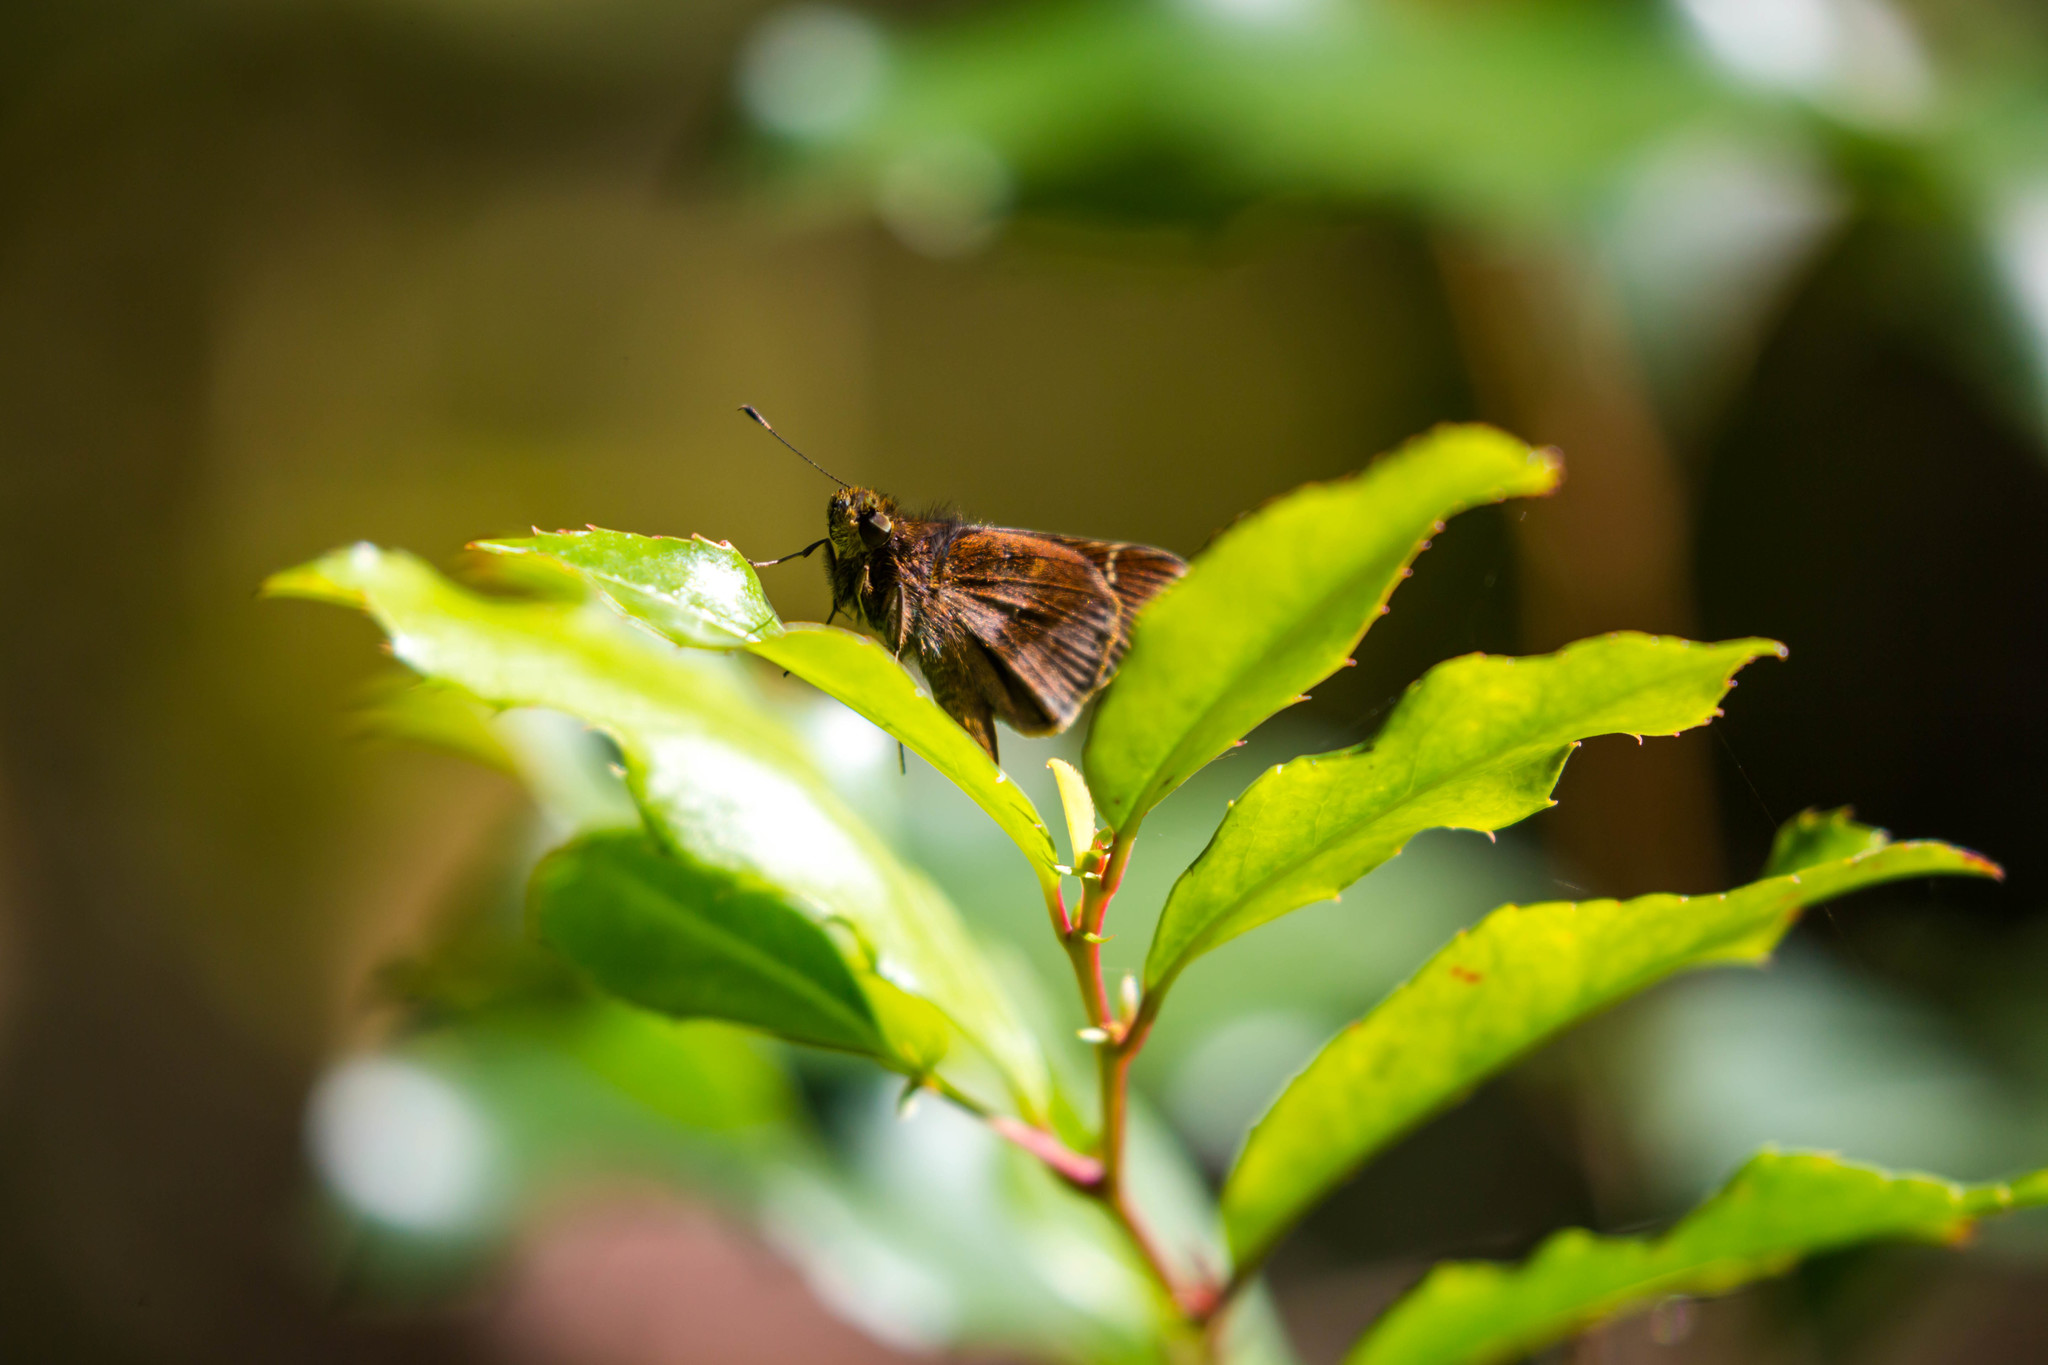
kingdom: Animalia
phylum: Arthropoda
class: Insecta
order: Lepidoptera
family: Hesperiidae
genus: Lerema
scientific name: Lerema accius
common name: Clouded skipper
